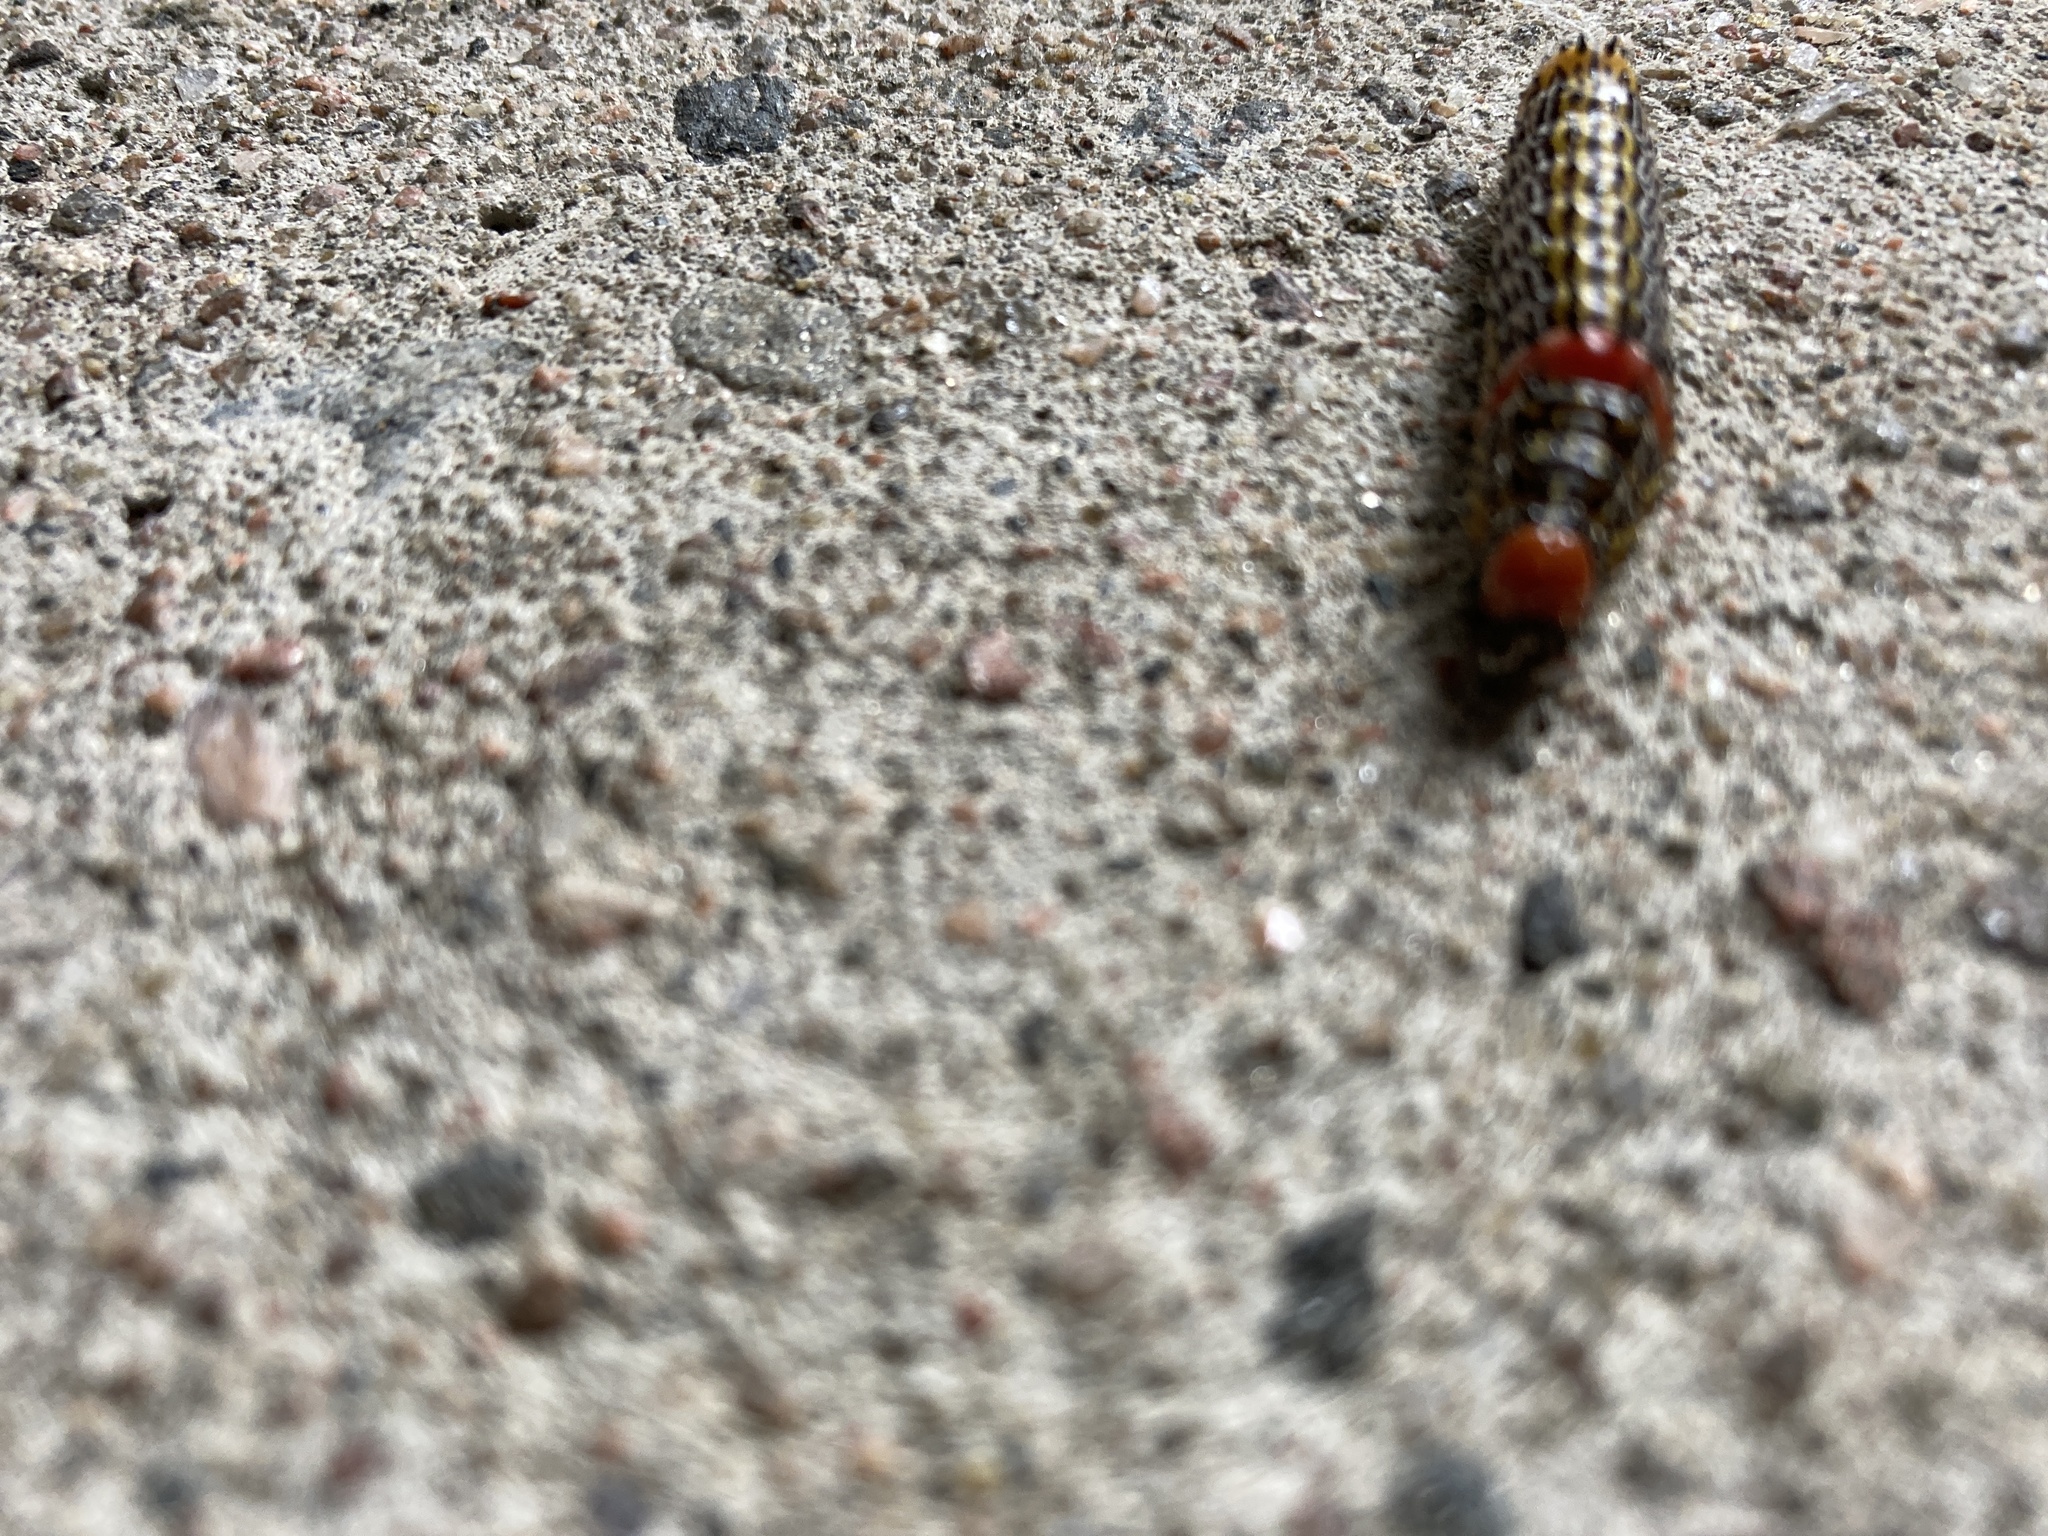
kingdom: Animalia
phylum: Arthropoda
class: Insecta
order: Lepidoptera
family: Notodontidae
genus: Schizura
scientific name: Schizura
